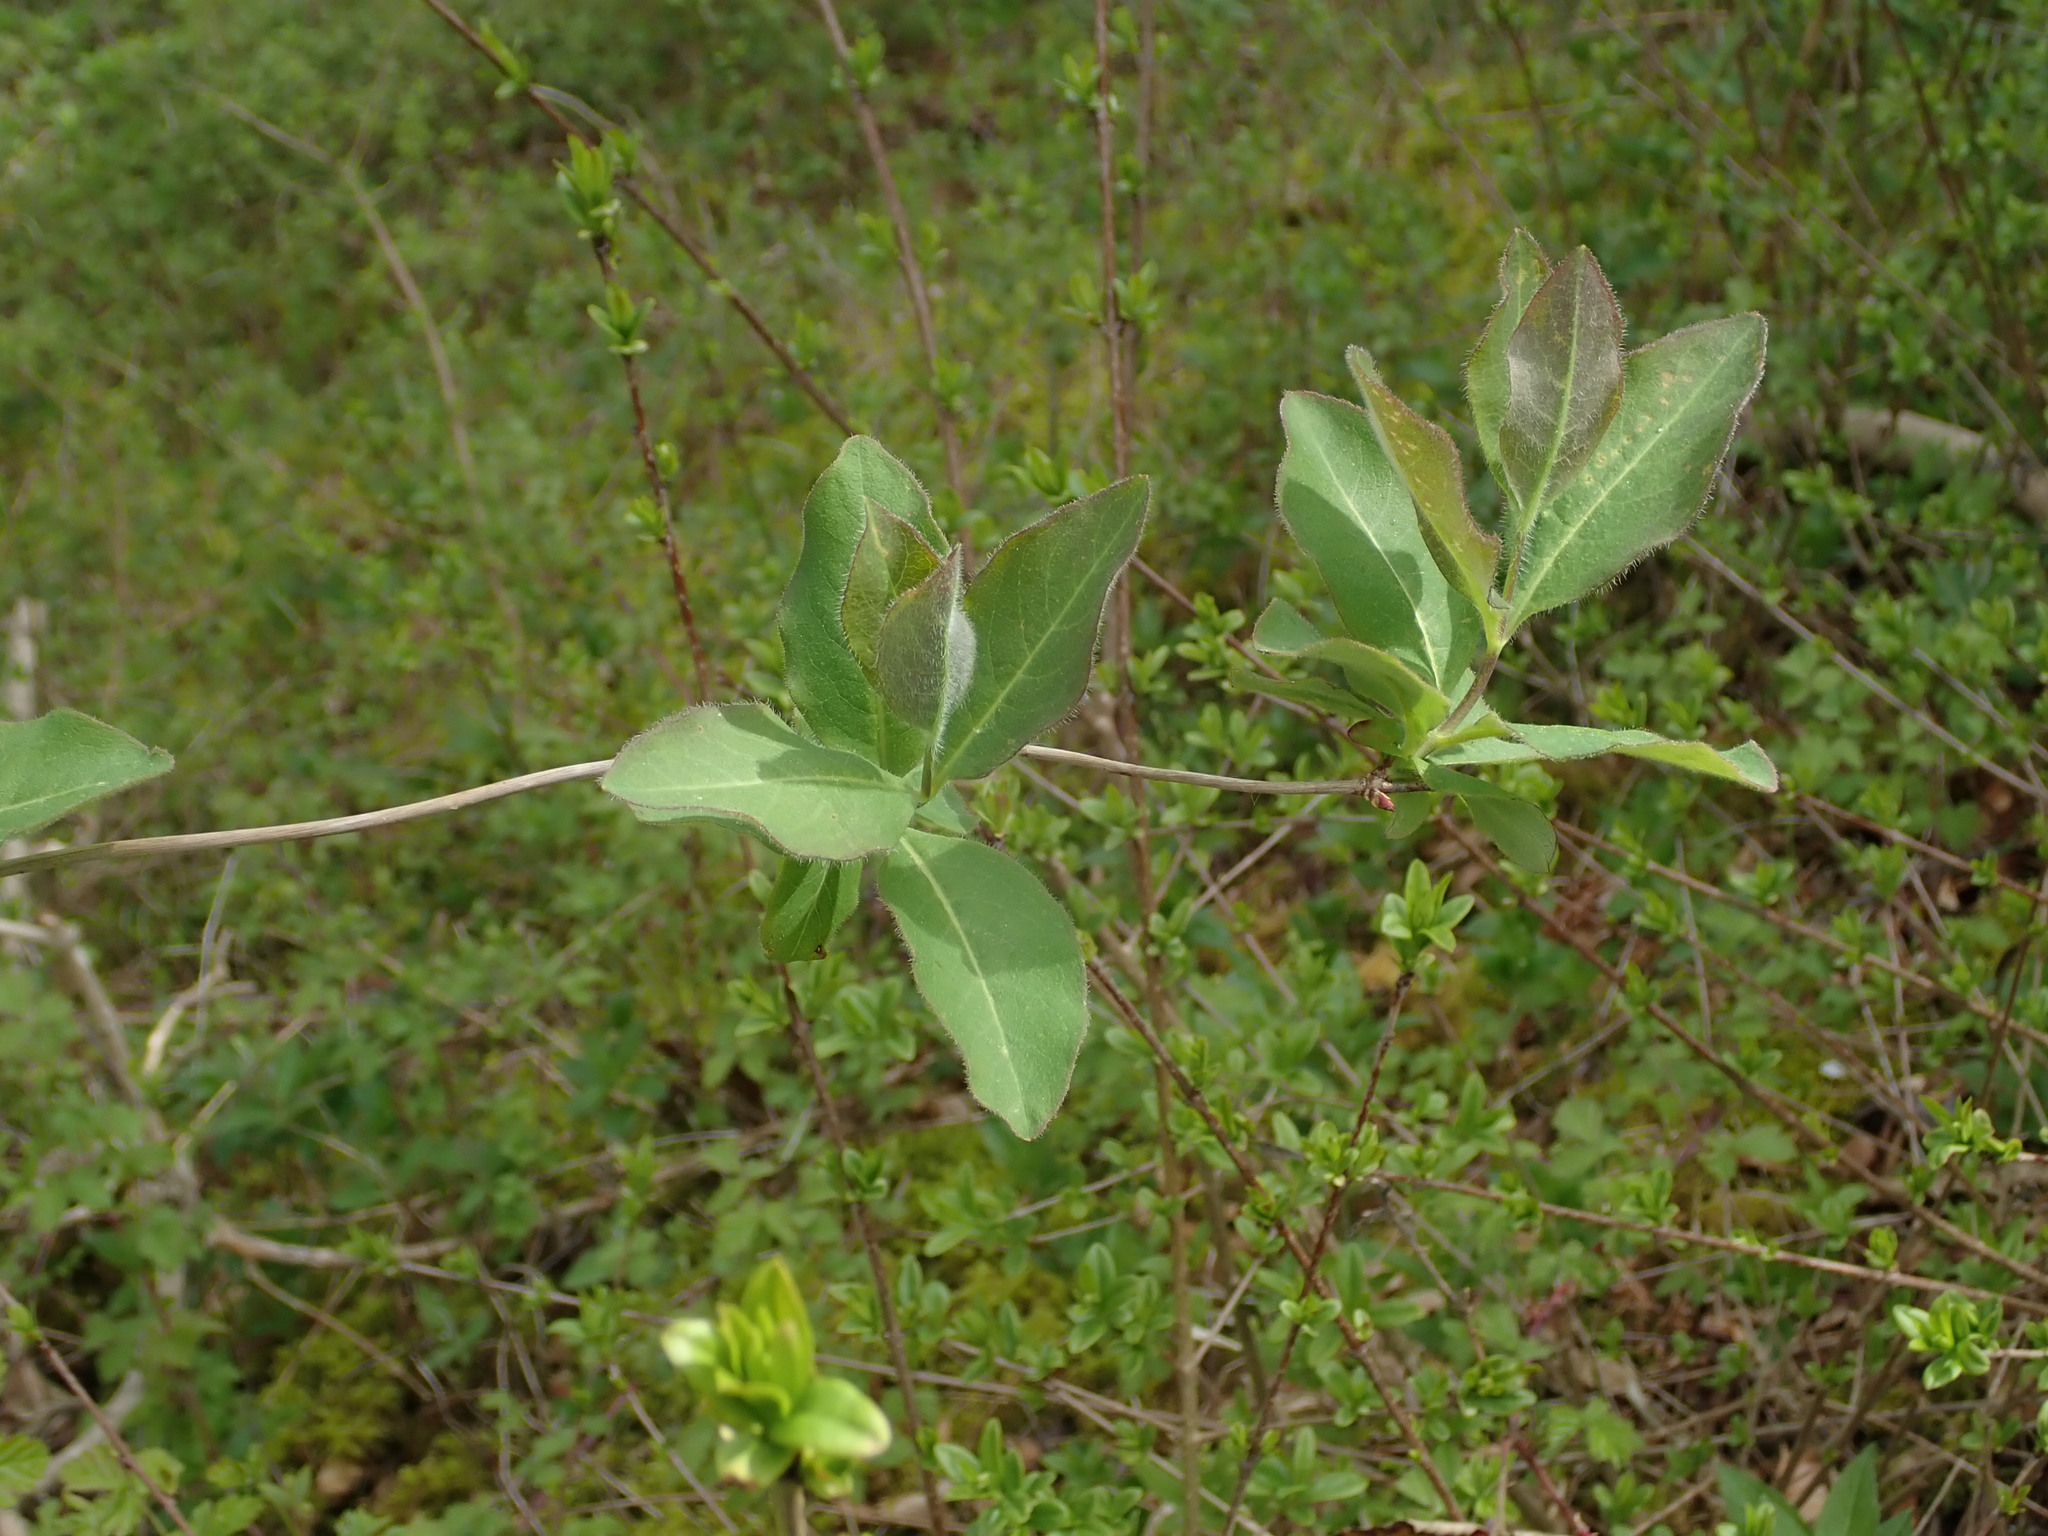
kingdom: Plantae
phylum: Tracheophyta
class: Magnoliopsida
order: Dipsacales
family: Caprifoliaceae
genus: Lonicera
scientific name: Lonicera periclymenum
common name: European honeysuckle
